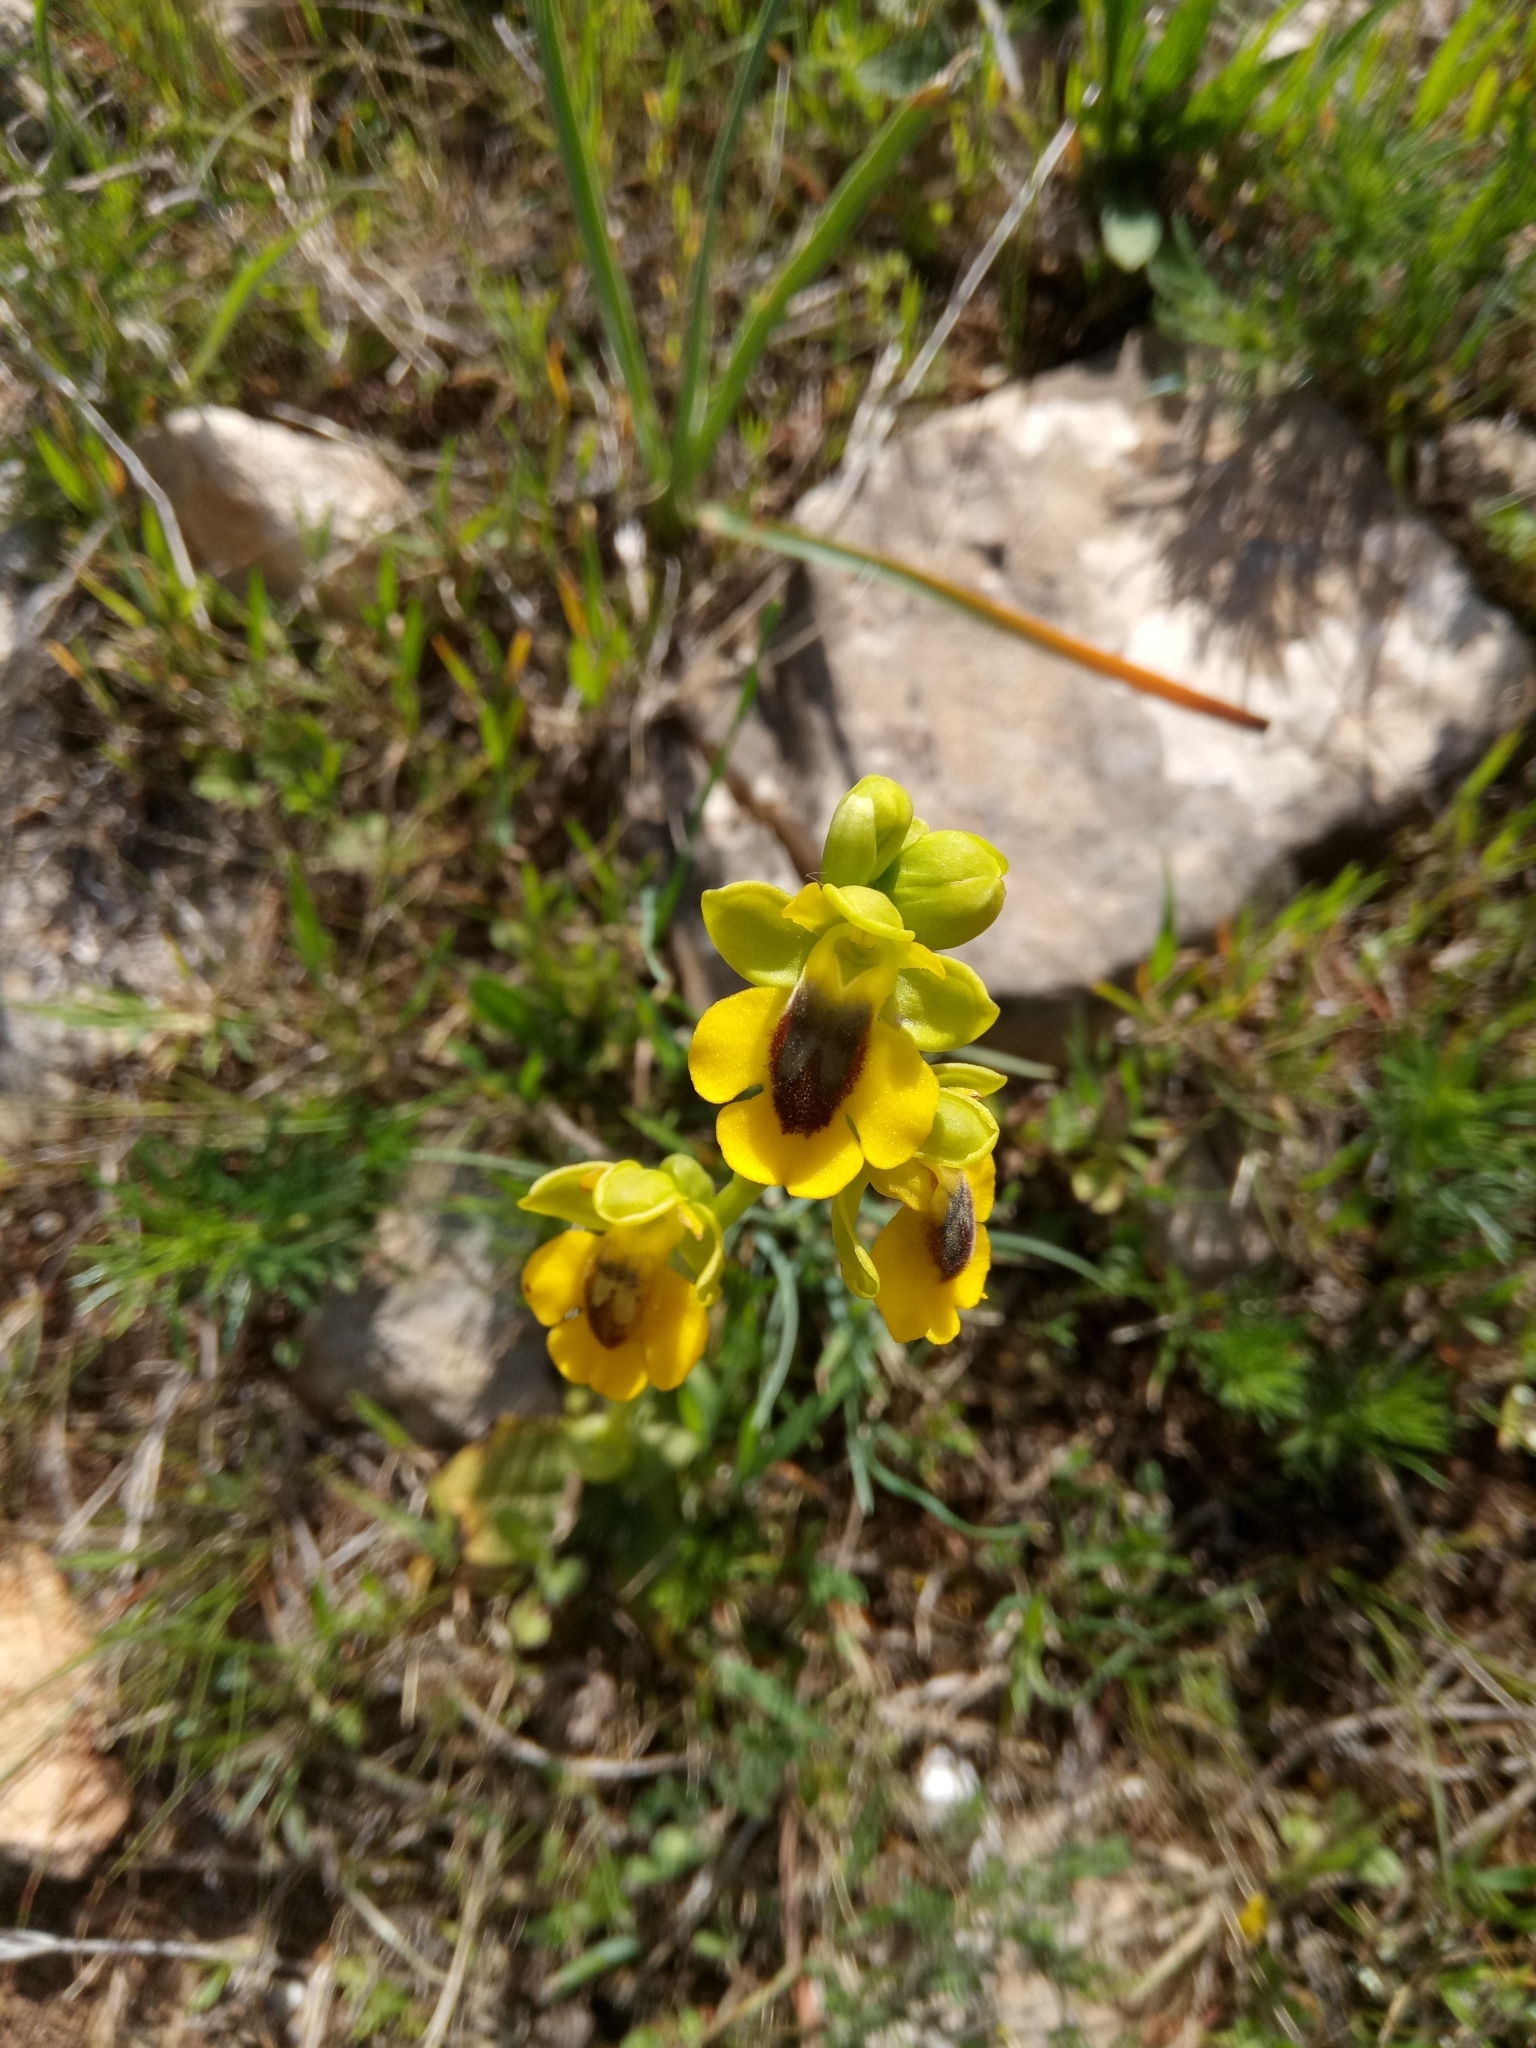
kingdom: Plantae
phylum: Tracheophyta
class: Liliopsida
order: Asparagales
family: Orchidaceae
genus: Ophrys
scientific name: Ophrys lutea
